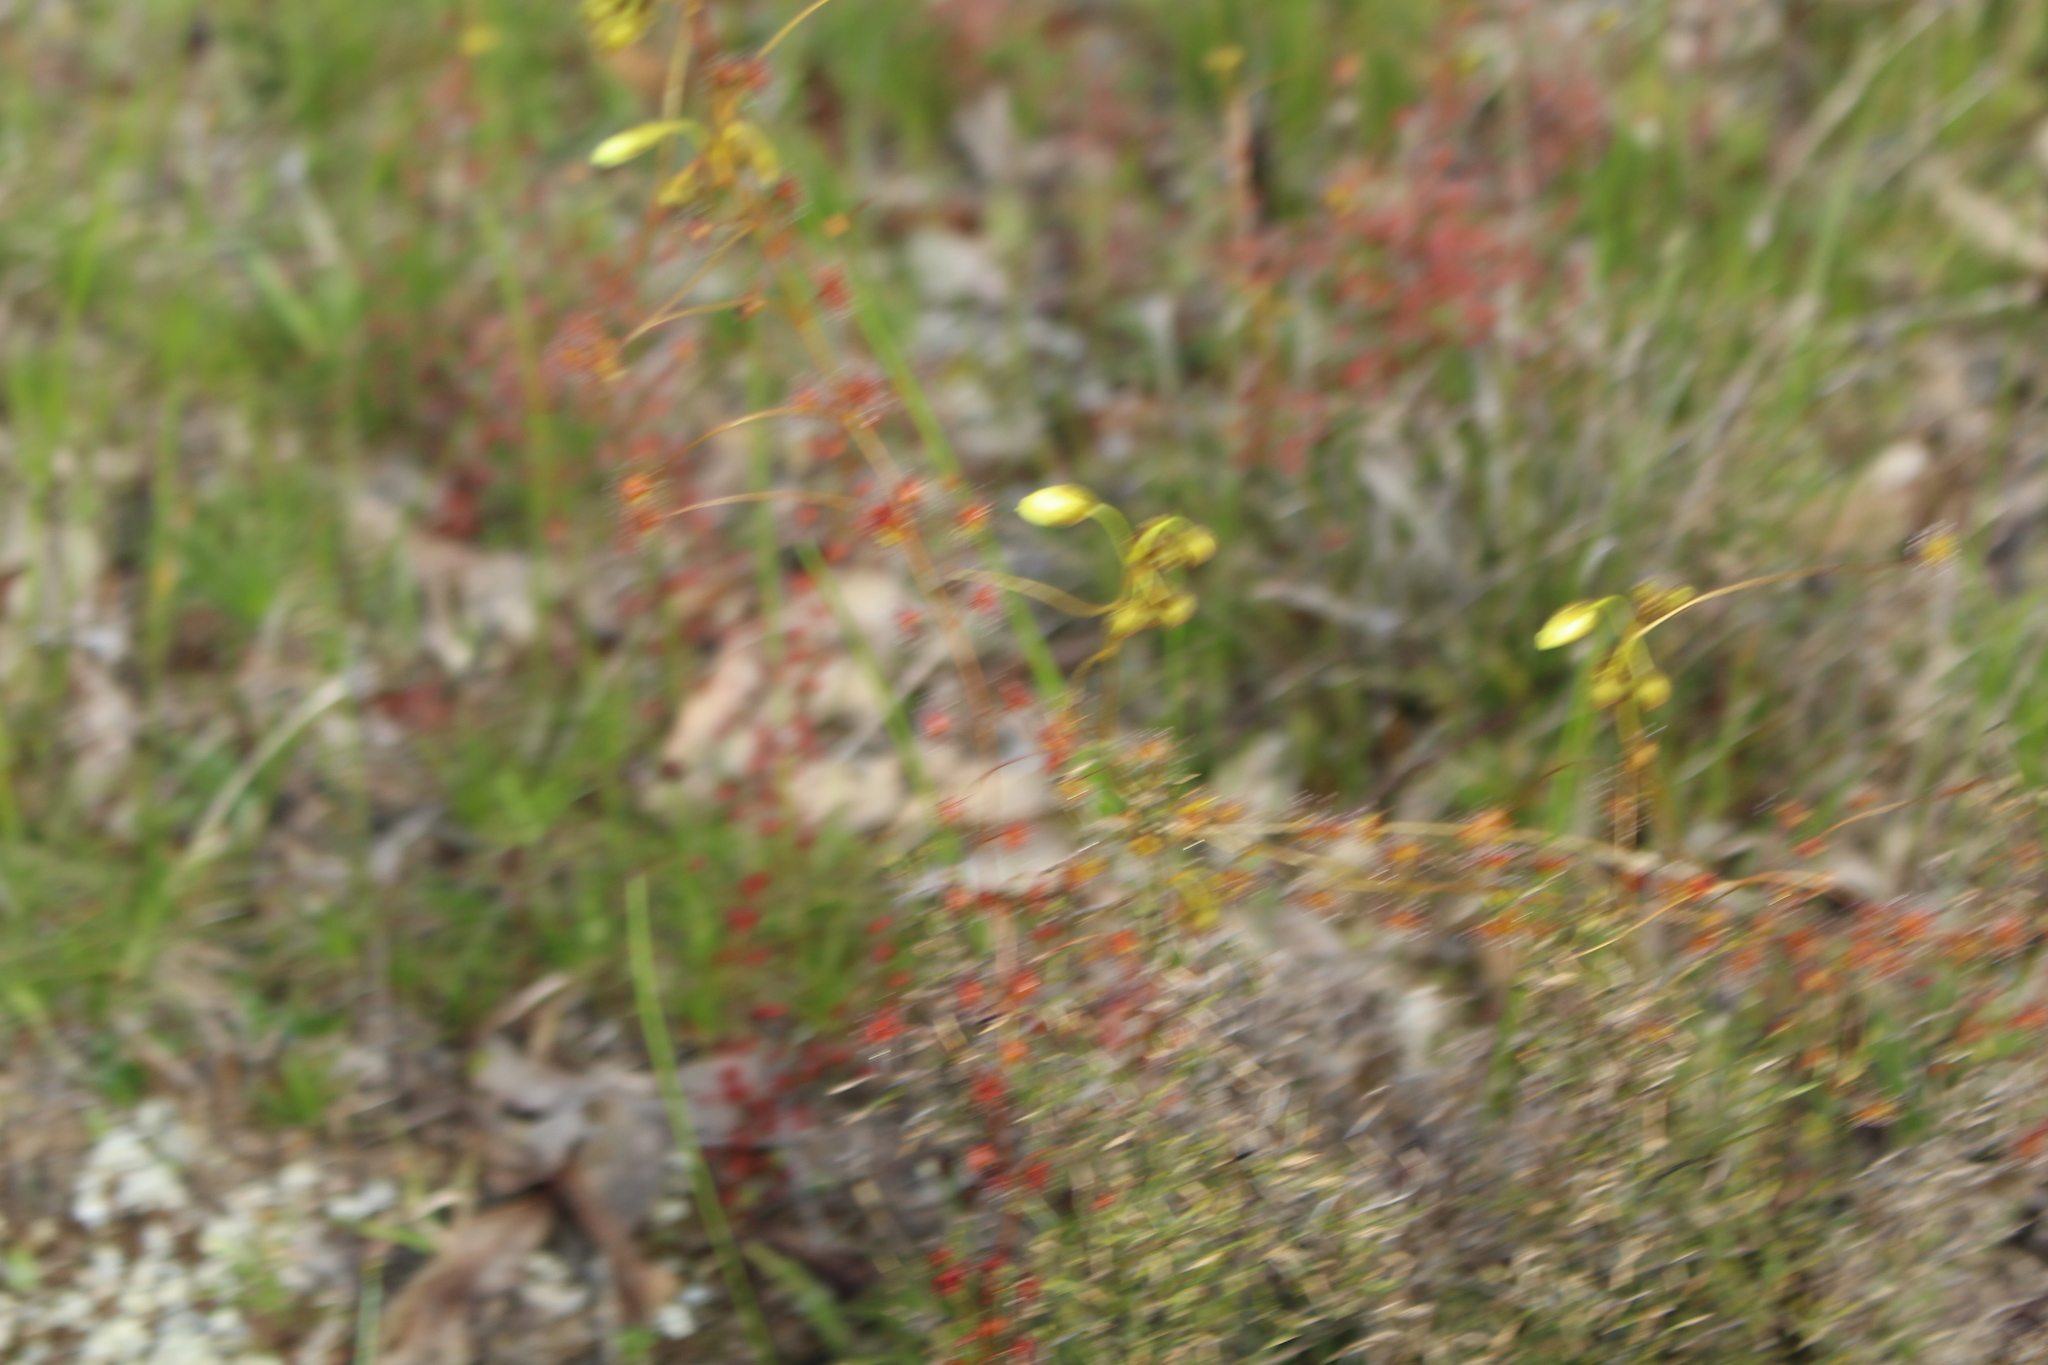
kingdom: Plantae
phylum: Tracheophyta
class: Magnoliopsida
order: Caryophyllales
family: Droseraceae
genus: Drosera
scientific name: Drosera subhirtella
